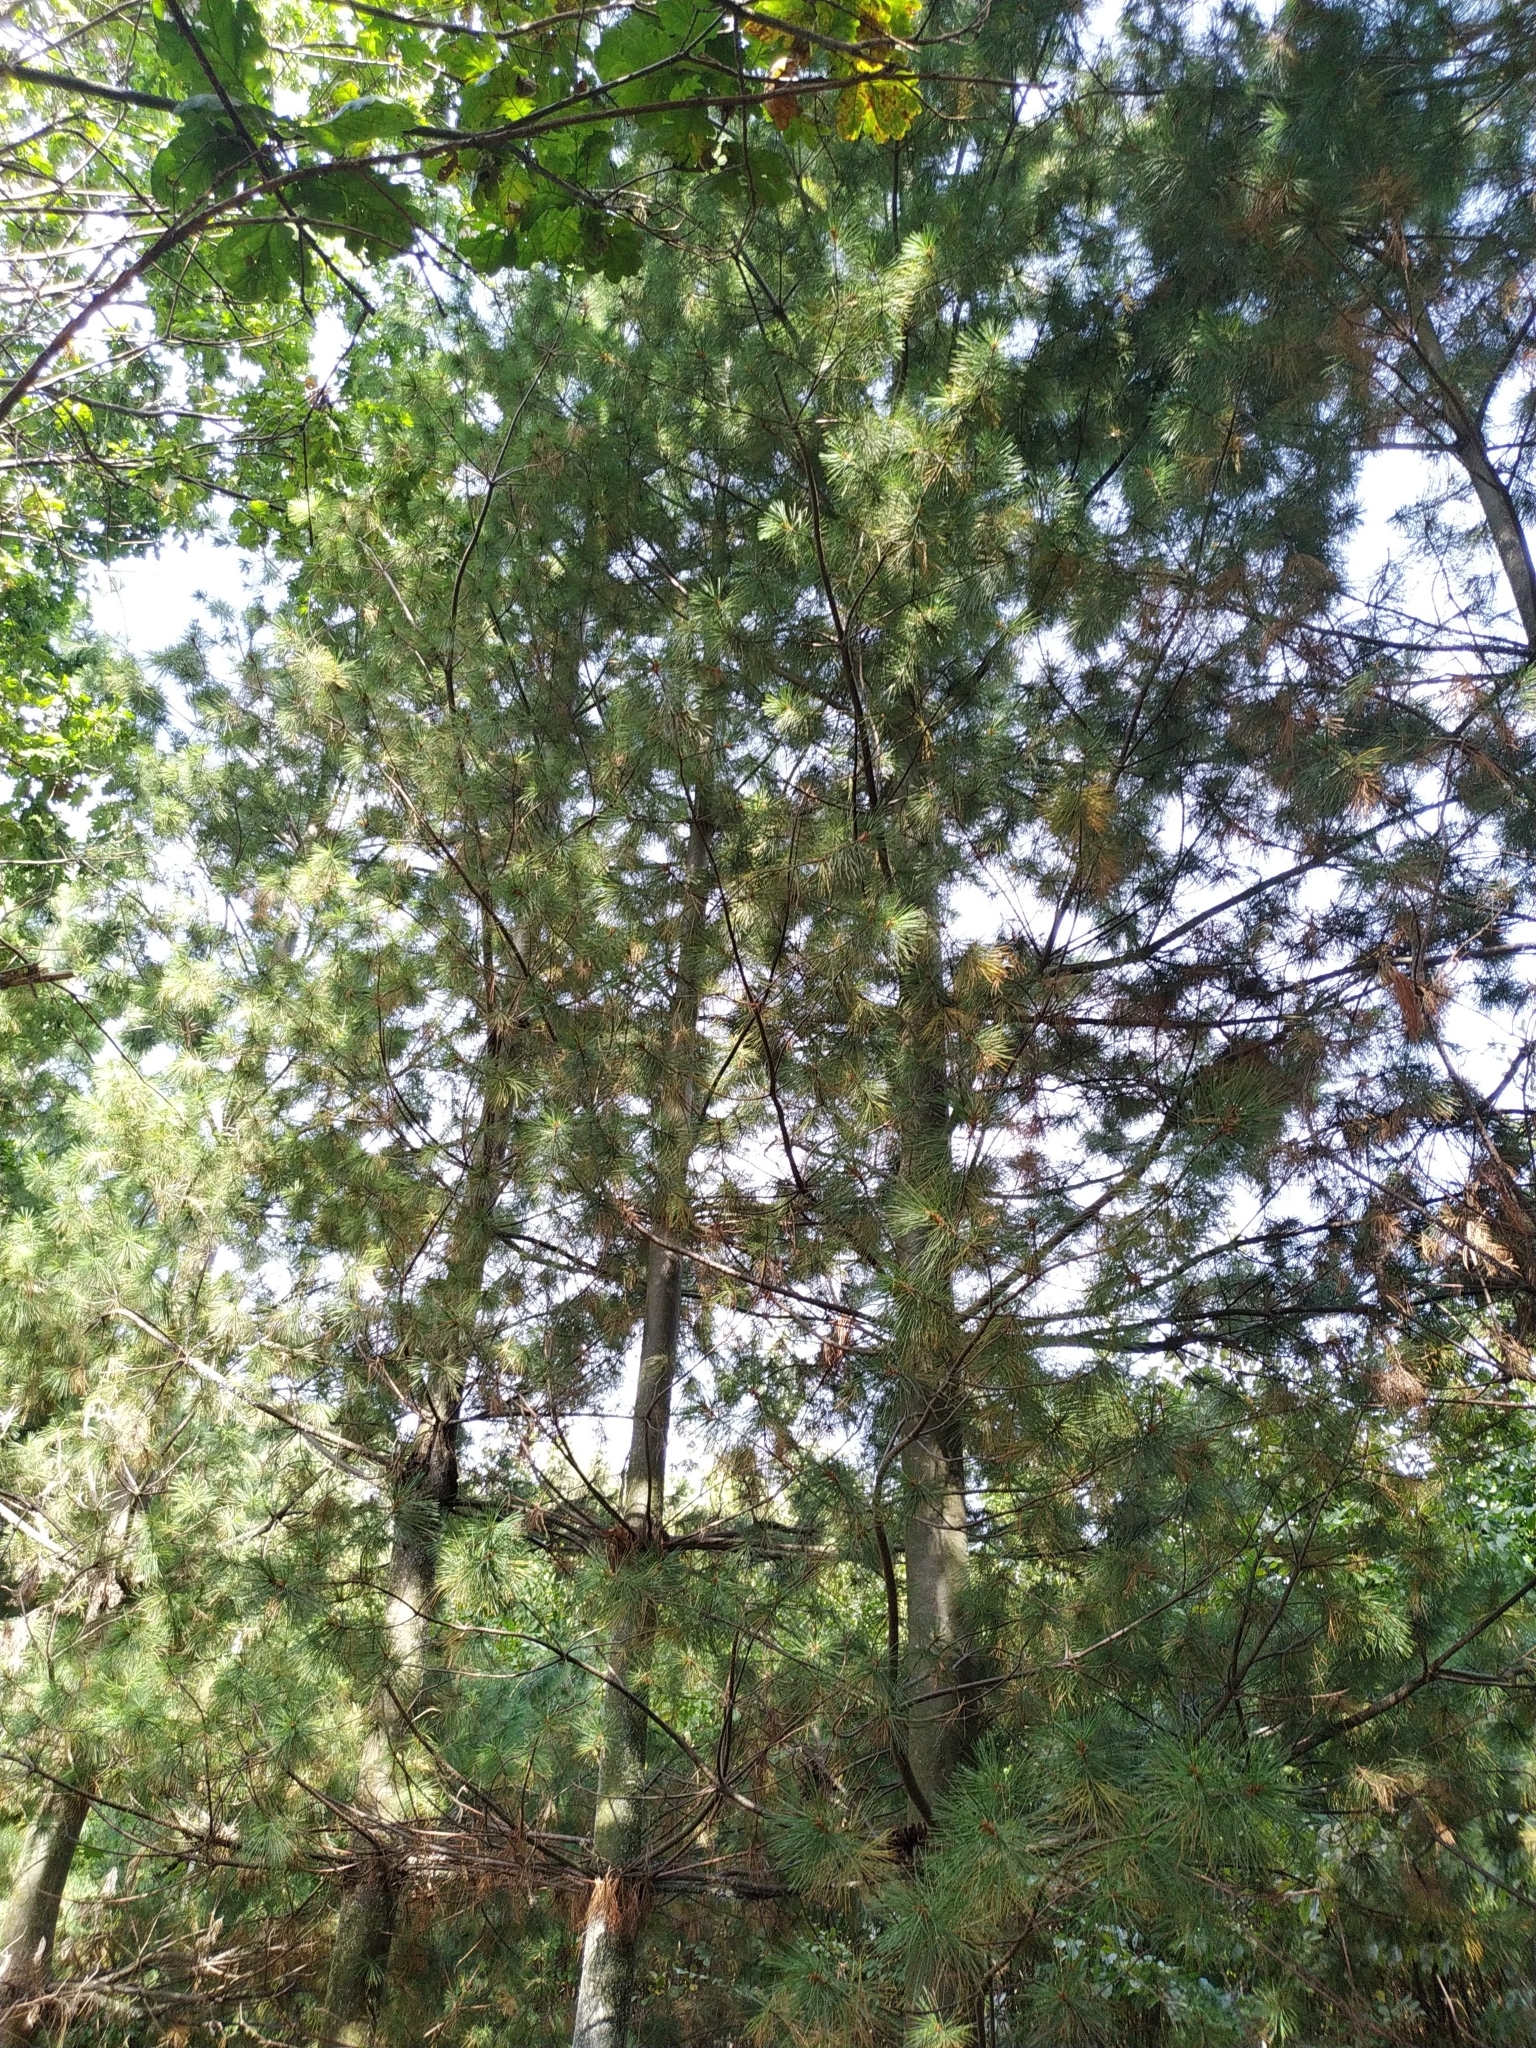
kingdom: Plantae
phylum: Tracheophyta
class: Pinopsida
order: Pinales
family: Pinaceae
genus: Pinus
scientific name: Pinus strobus
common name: Weymouth pine
